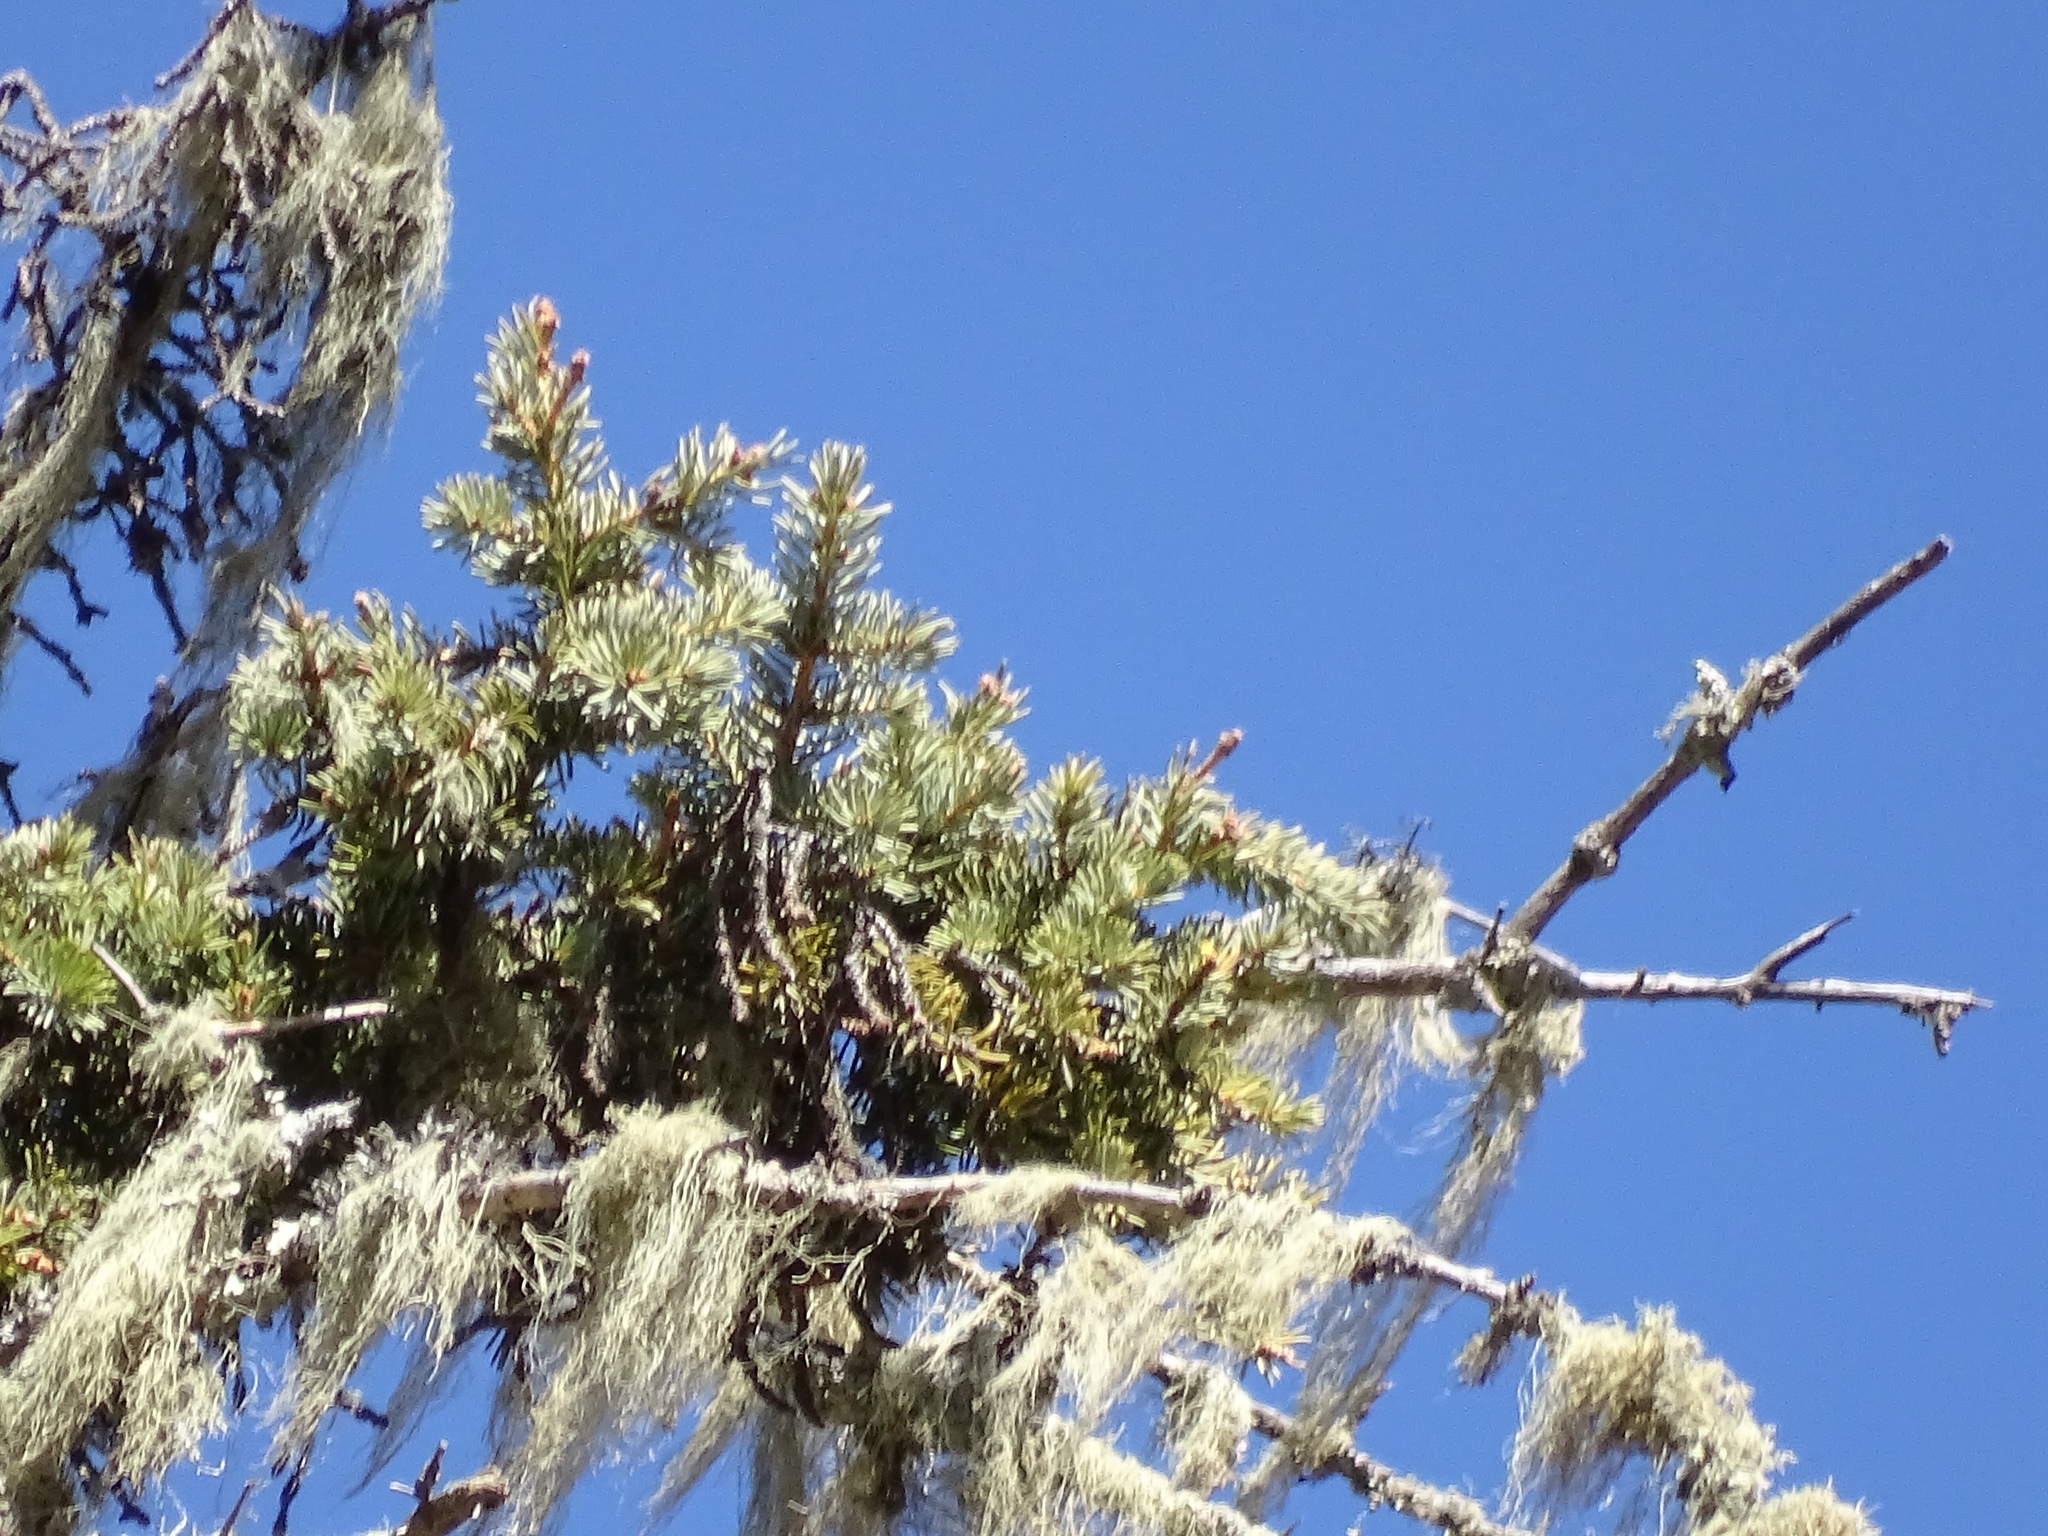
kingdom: Plantae
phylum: Tracheophyta
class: Pinopsida
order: Pinales
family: Pinaceae
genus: Picea
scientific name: Picea engelmannii
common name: Engelmann spruce
